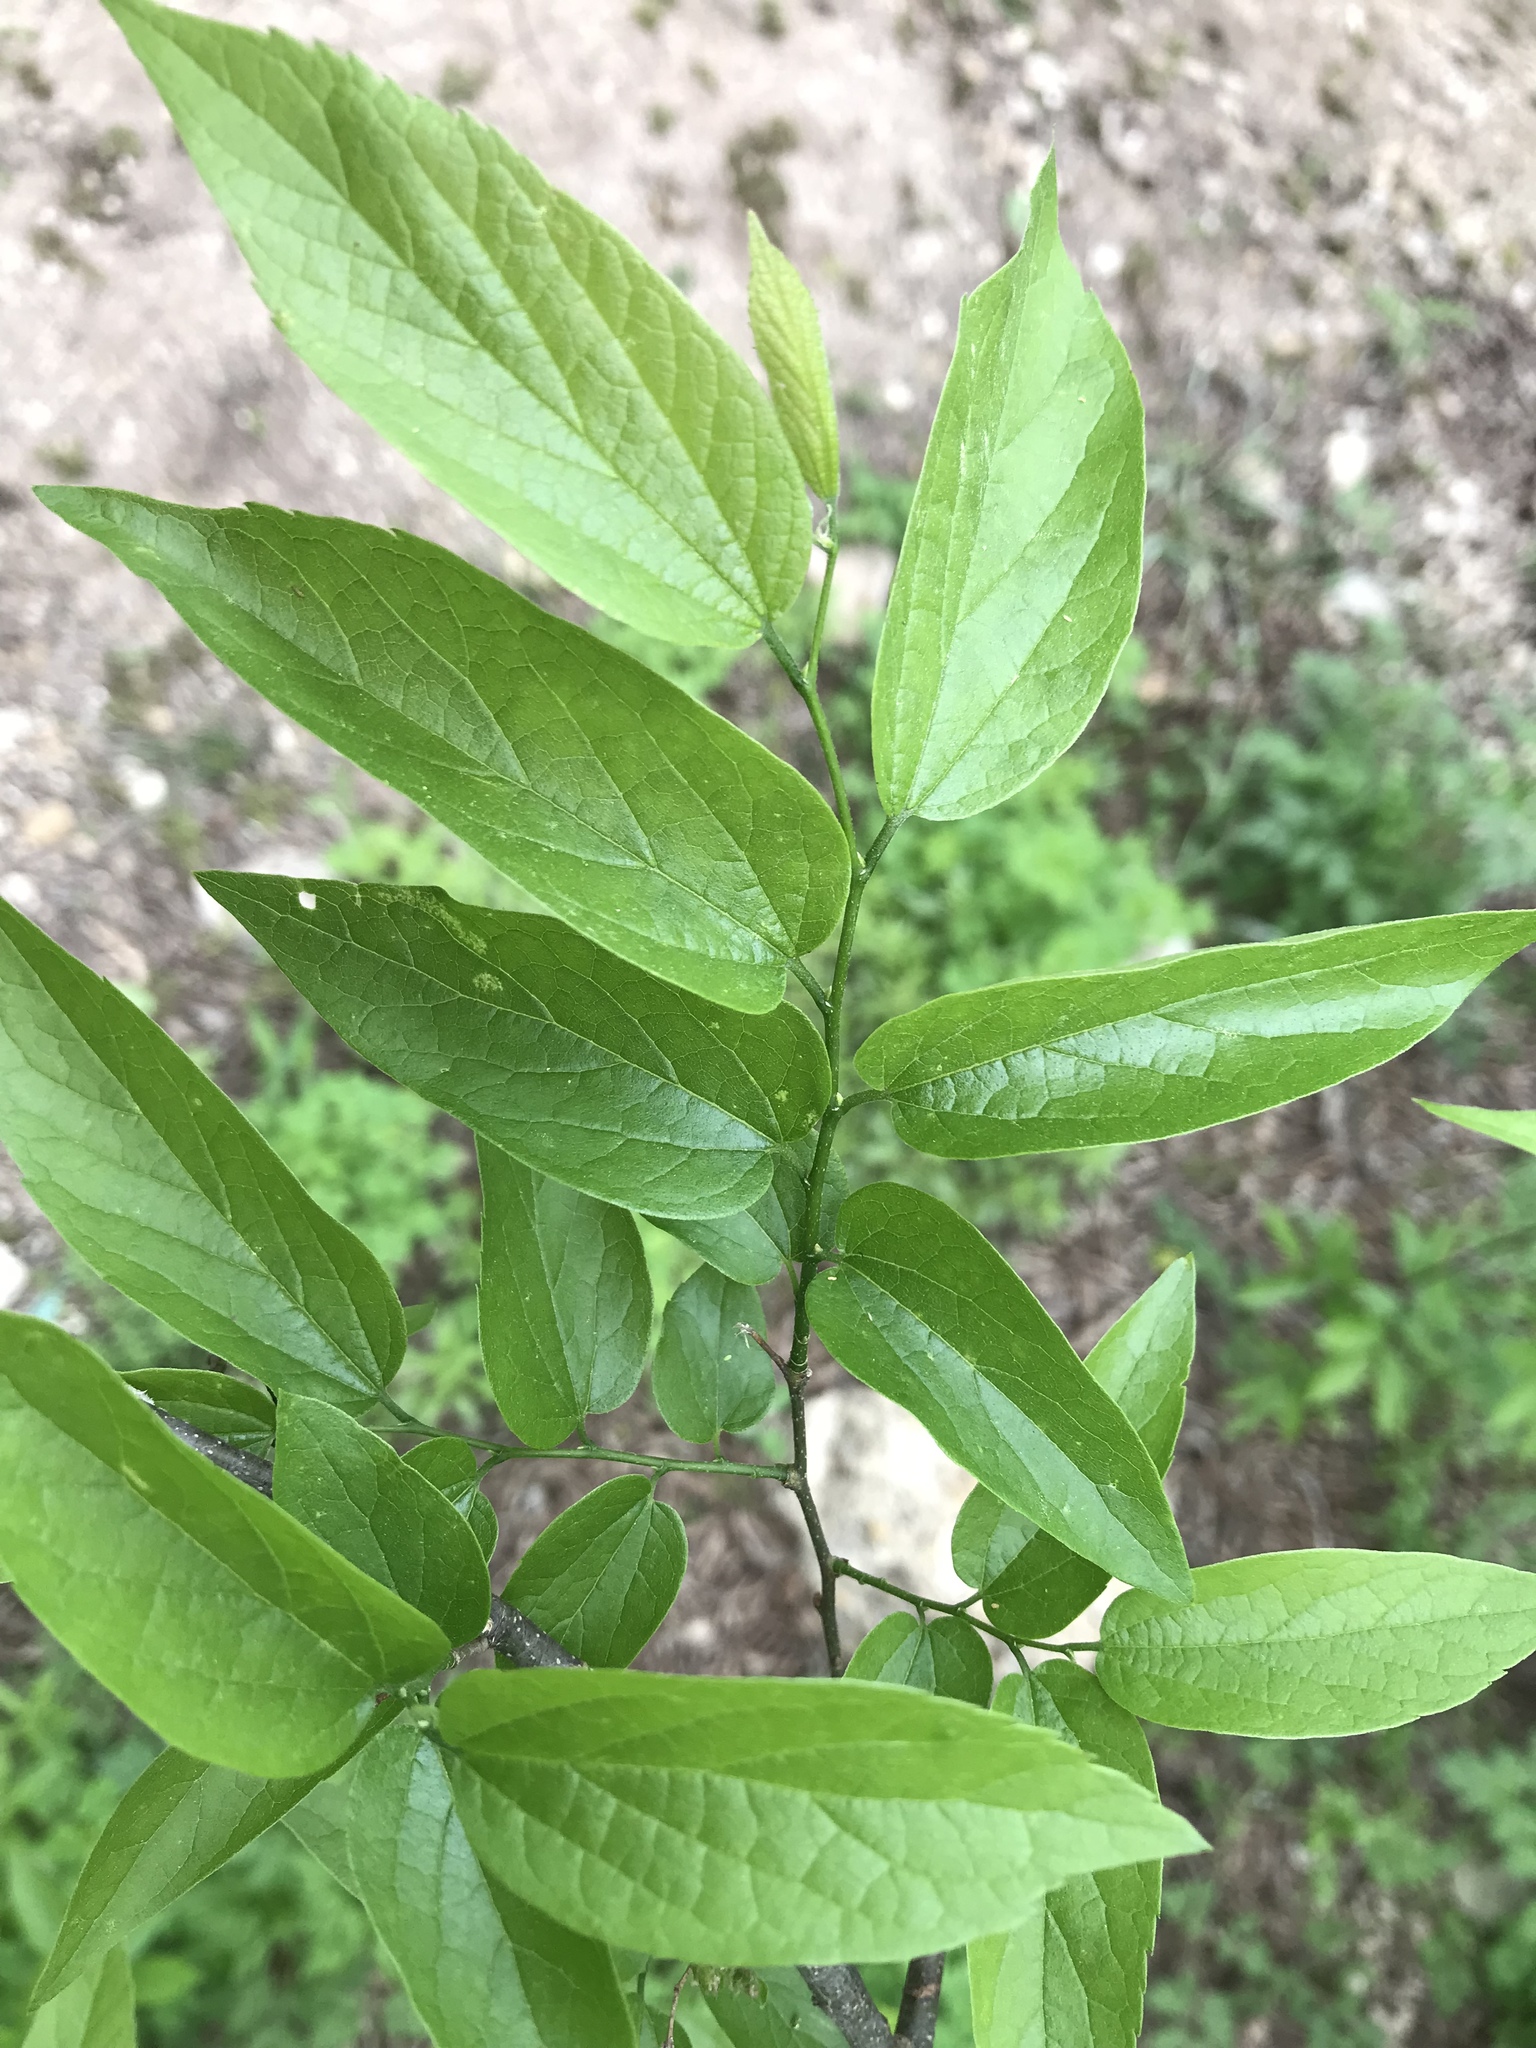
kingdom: Plantae
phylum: Tracheophyta
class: Magnoliopsida
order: Rosales
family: Cannabaceae
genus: Celtis
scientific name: Celtis laevigata
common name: Sugarberry
